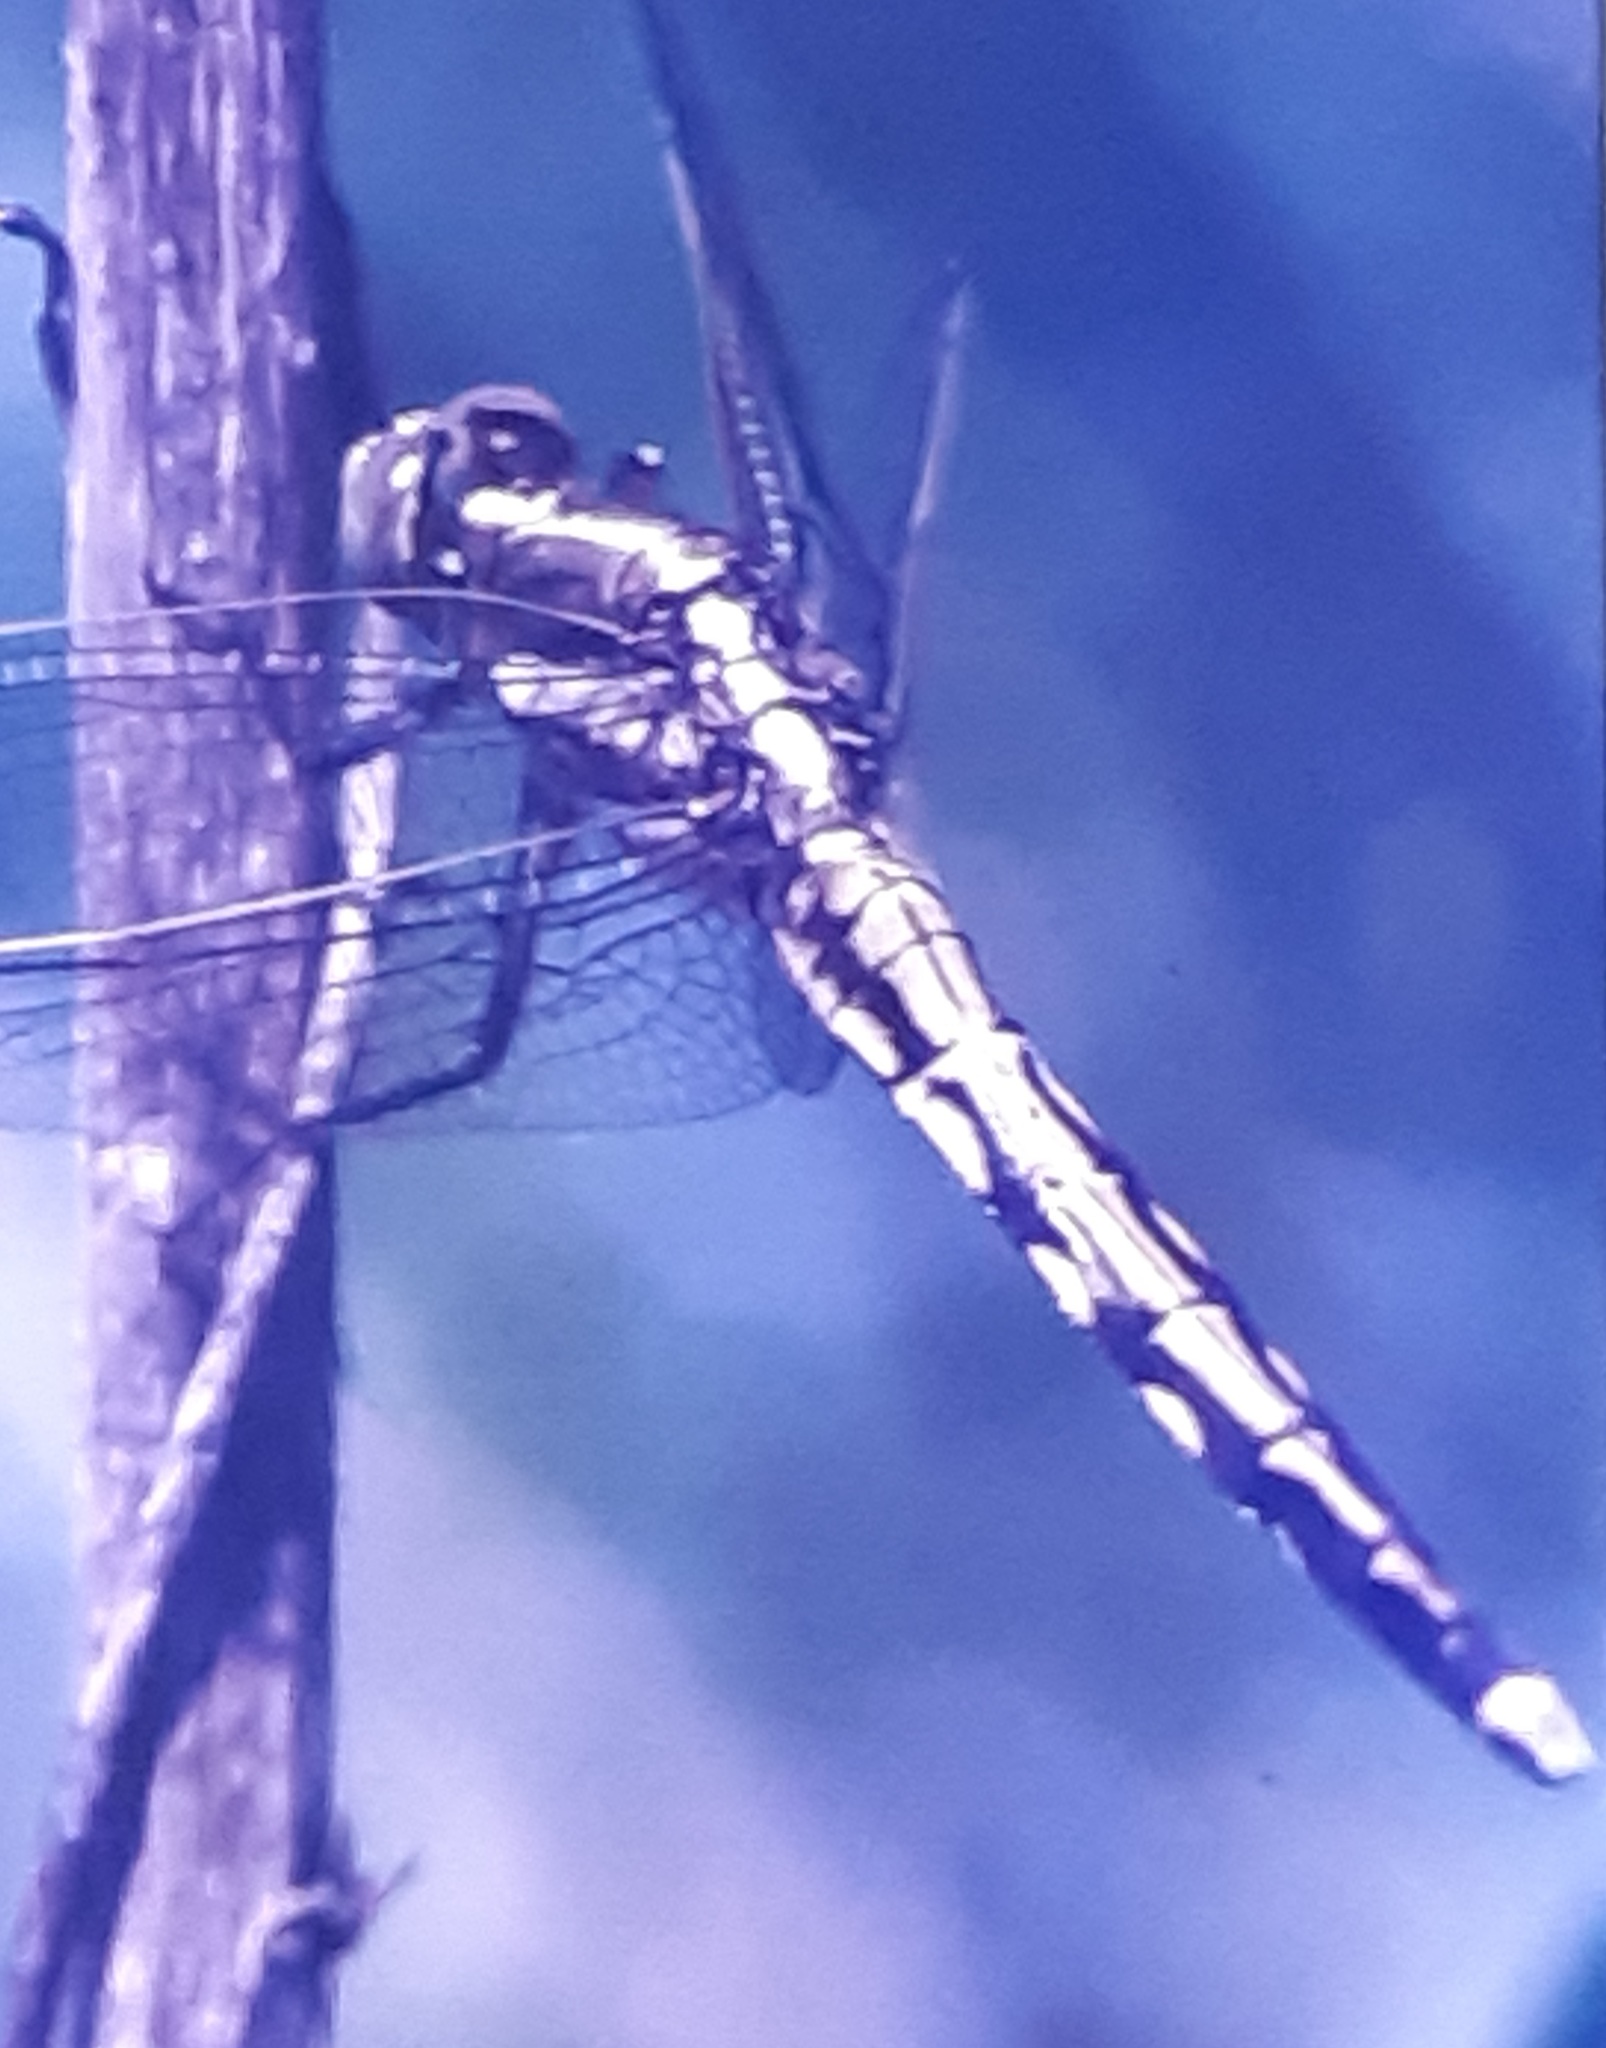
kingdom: Animalia
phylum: Arthropoda
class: Insecta
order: Odonata
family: Libellulidae
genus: Orthetrum
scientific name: Orthetrum albistylum
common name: White-tailed skimmer
